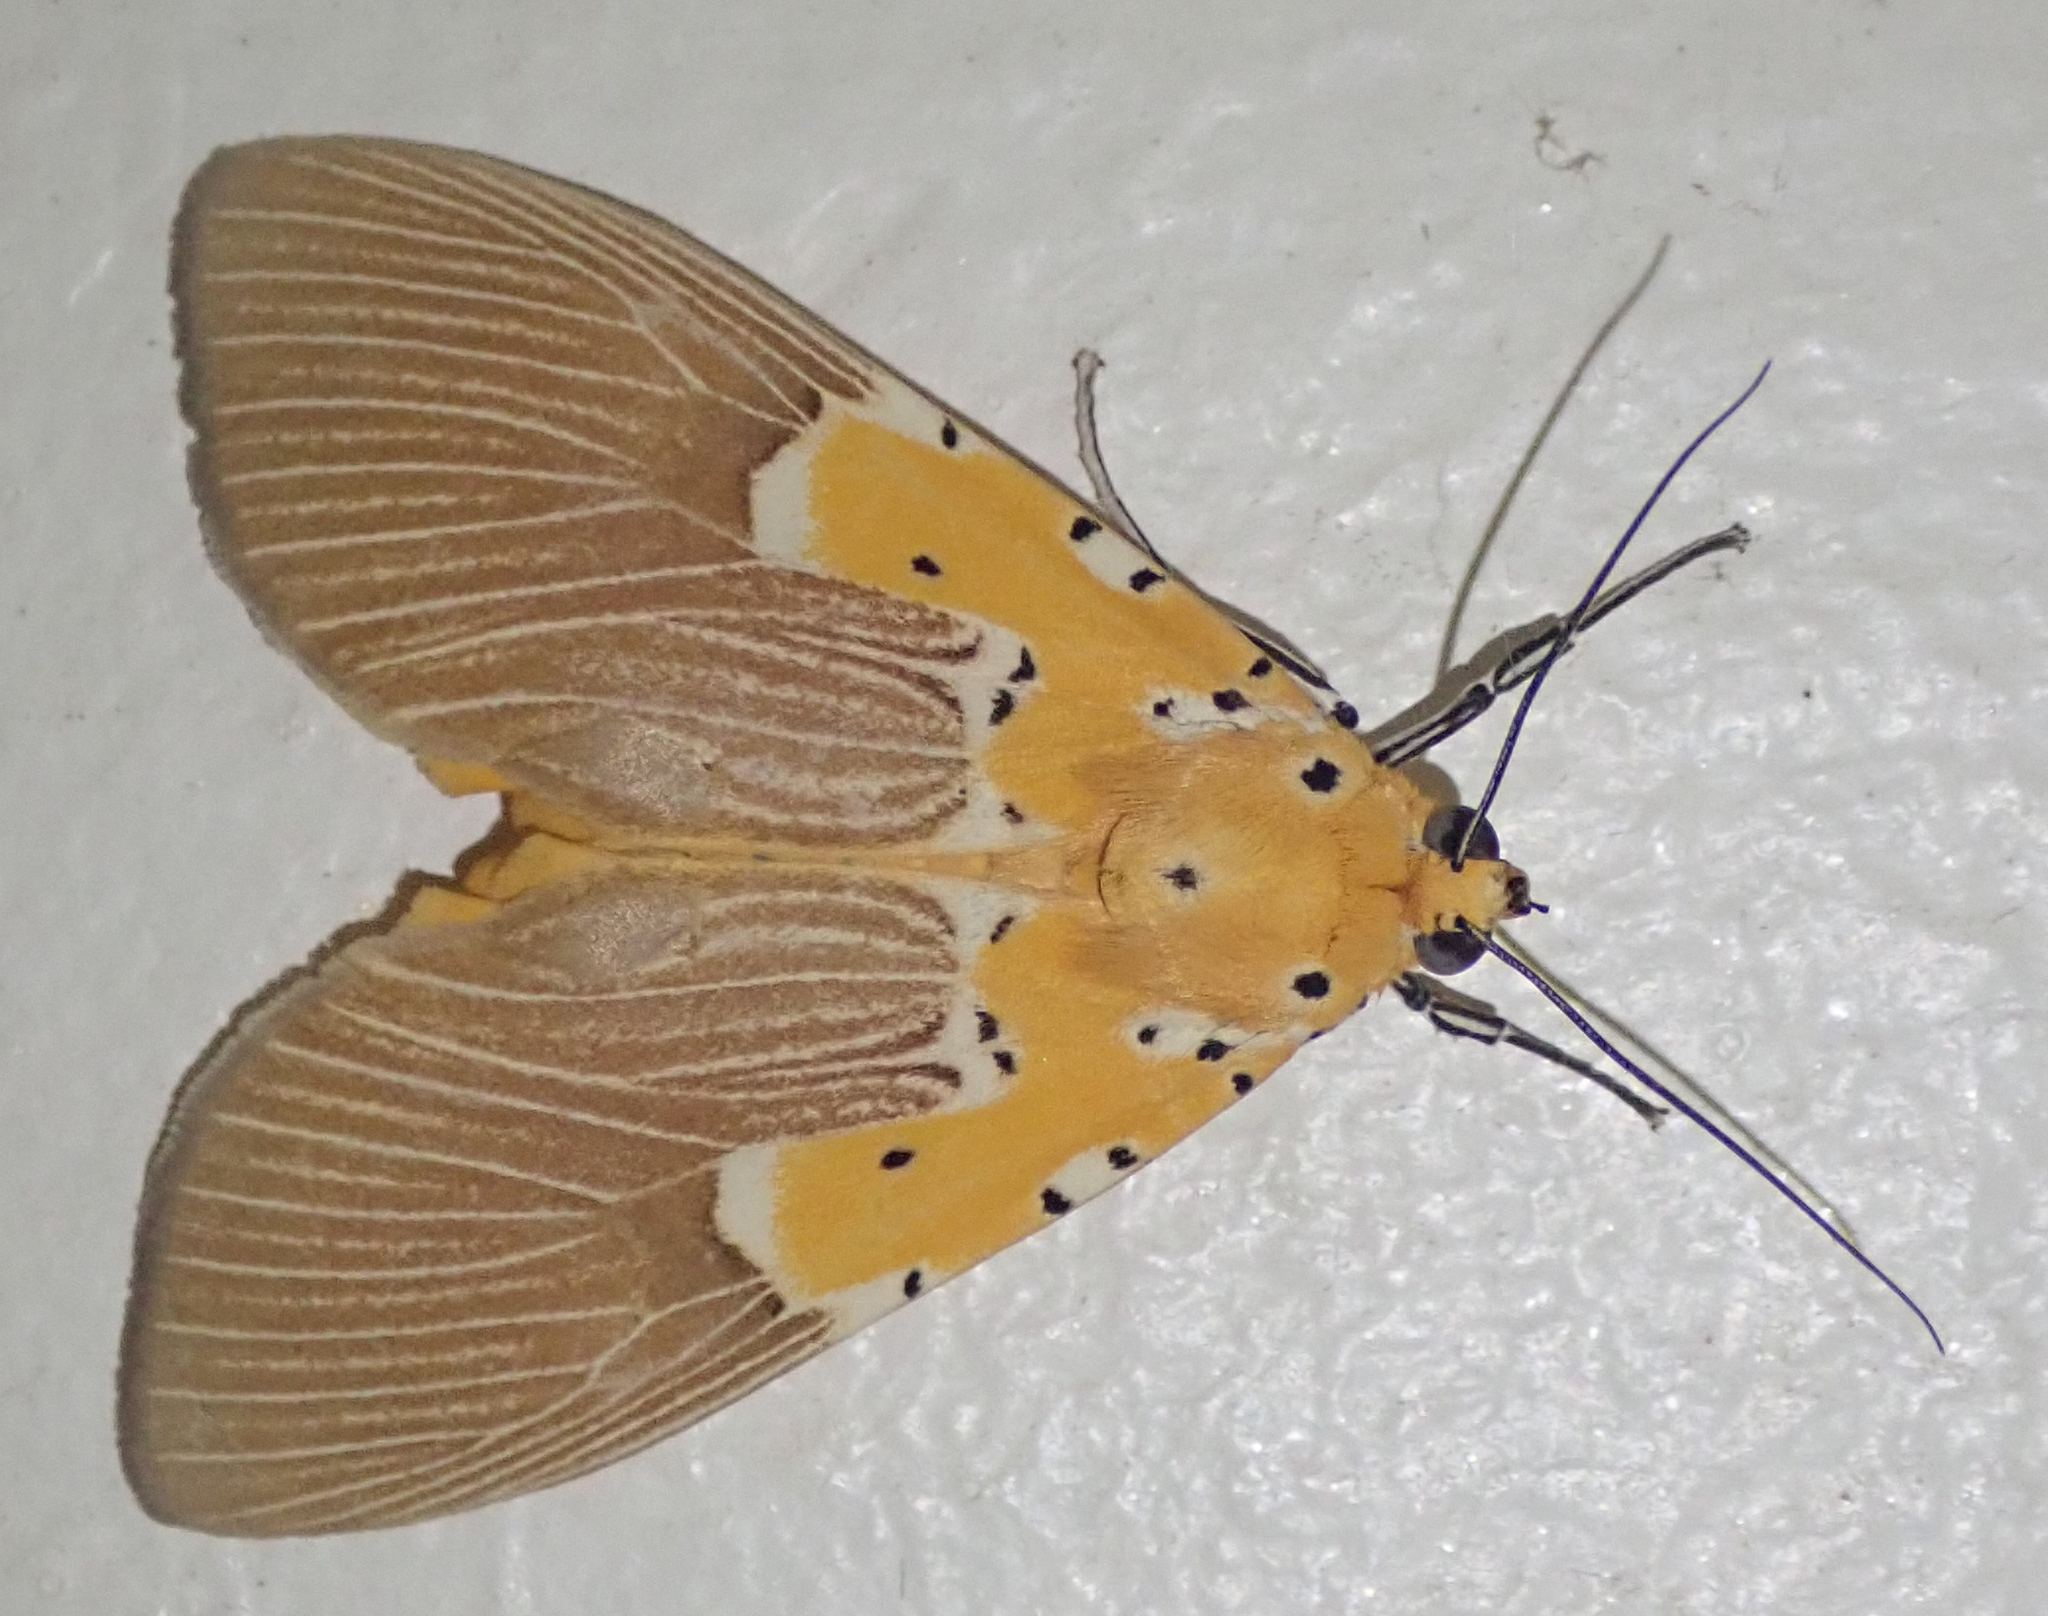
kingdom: Animalia
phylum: Arthropoda
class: Insecta
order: Lepidoptera
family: Erebidae
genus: Asota
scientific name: Asota speciosa
